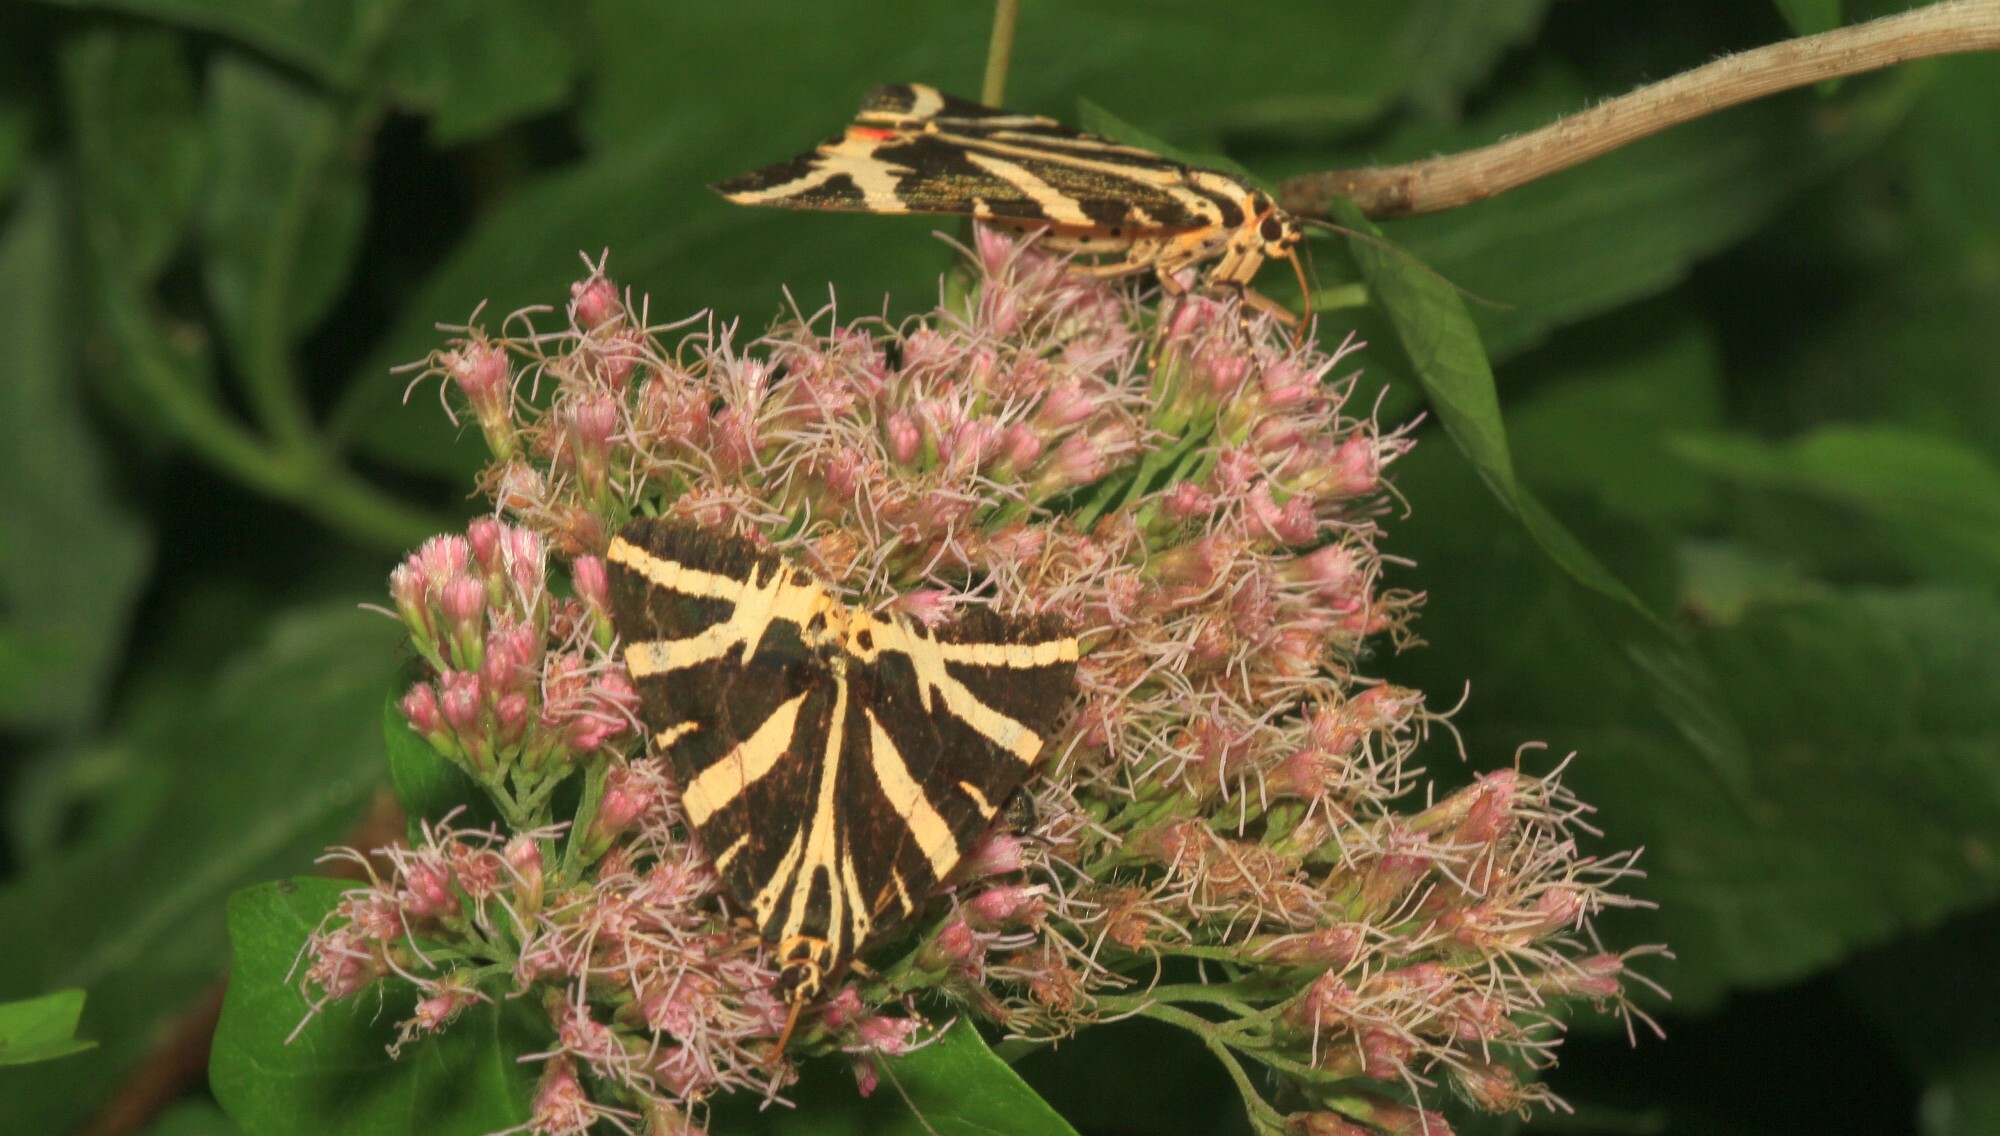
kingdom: Animalia
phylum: Arthropoda
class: Insecta
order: Lepidoptera
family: Erebidae
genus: Euplagia
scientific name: Euplagia quadripunctaria
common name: Jersey tiger
